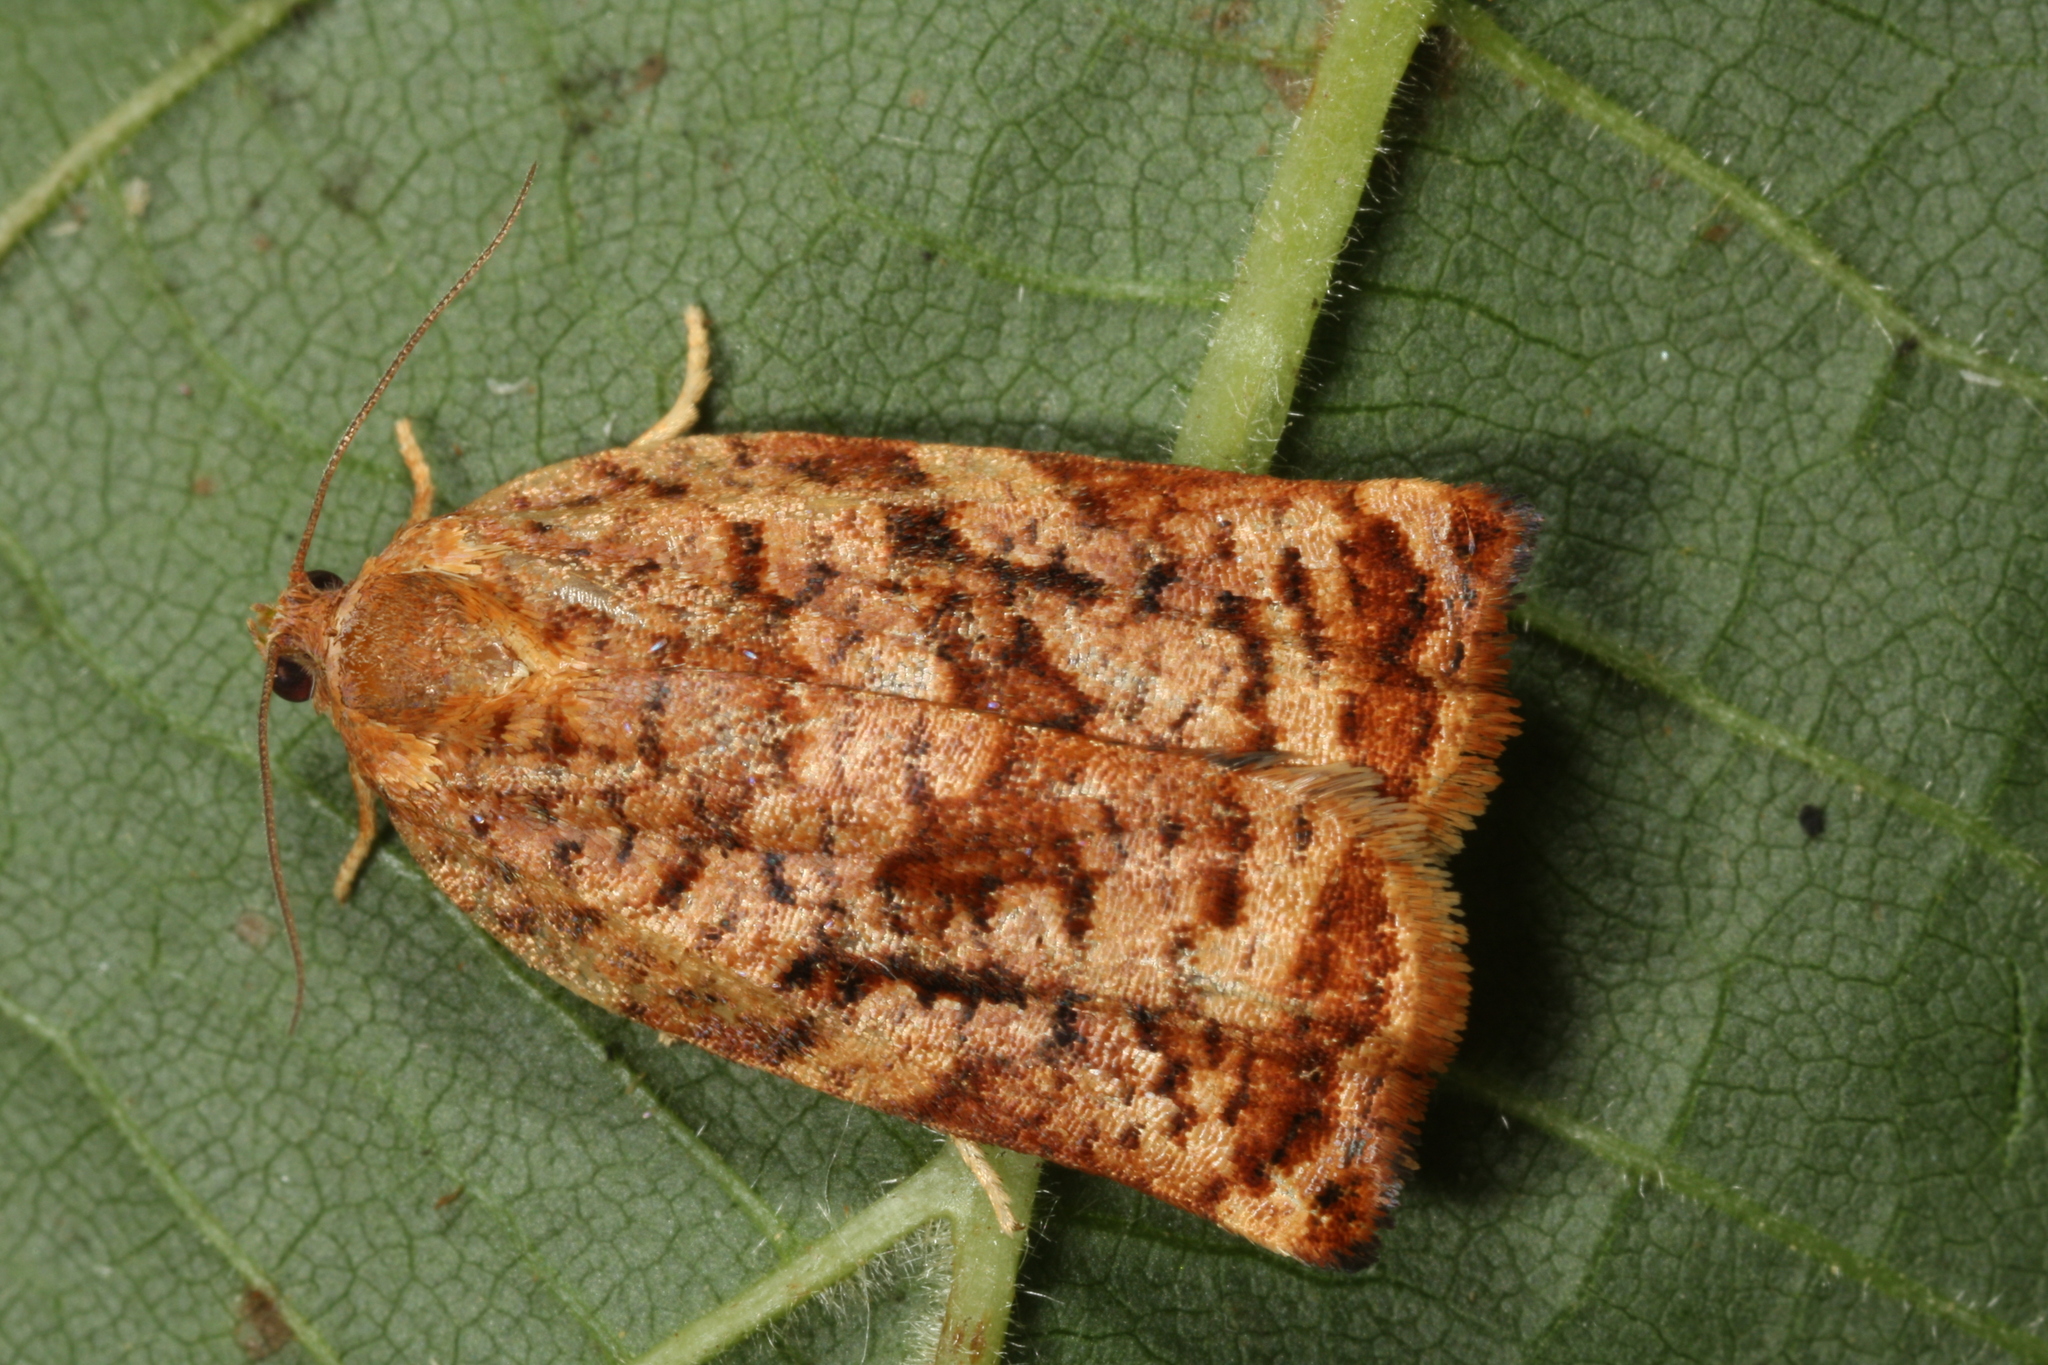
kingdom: Animalia
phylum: Arthropoda
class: Insecta
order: Lepidoptera
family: Tortricidae
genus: Archips
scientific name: Archips oporana
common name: Sprice tortrix moth
